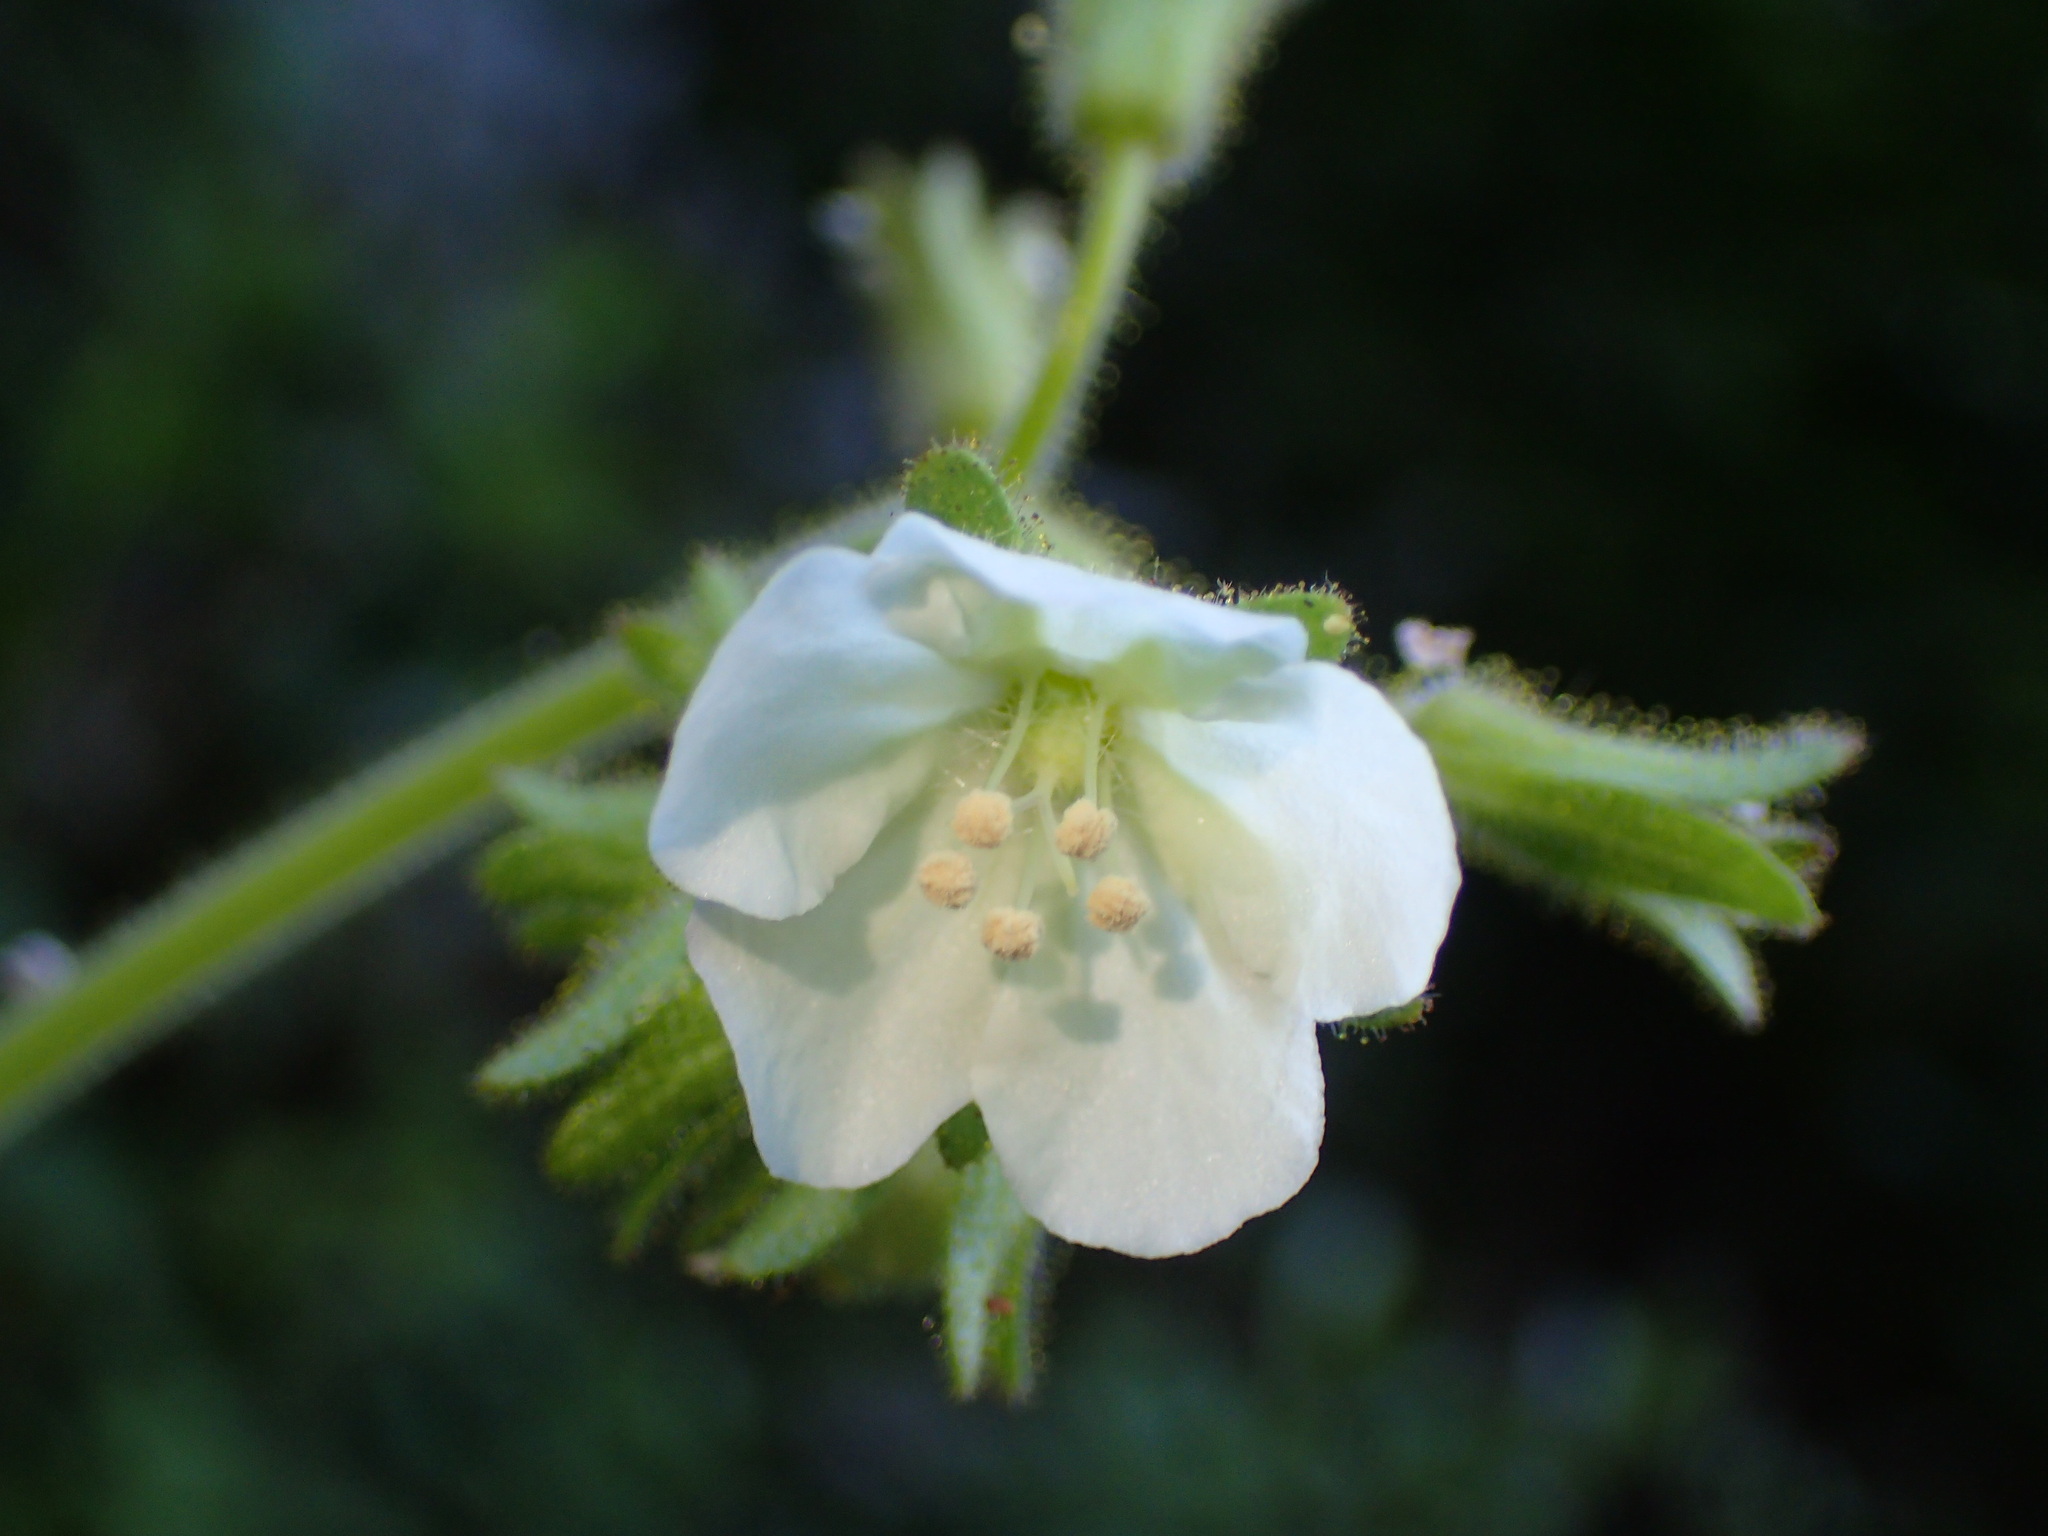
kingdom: Plantae
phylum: Tracheophyta
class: Magnoliopsida
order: Boraginales
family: Hydrophyllaceae
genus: Phacelia
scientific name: Phacelia viscida
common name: Sticky phacelia
